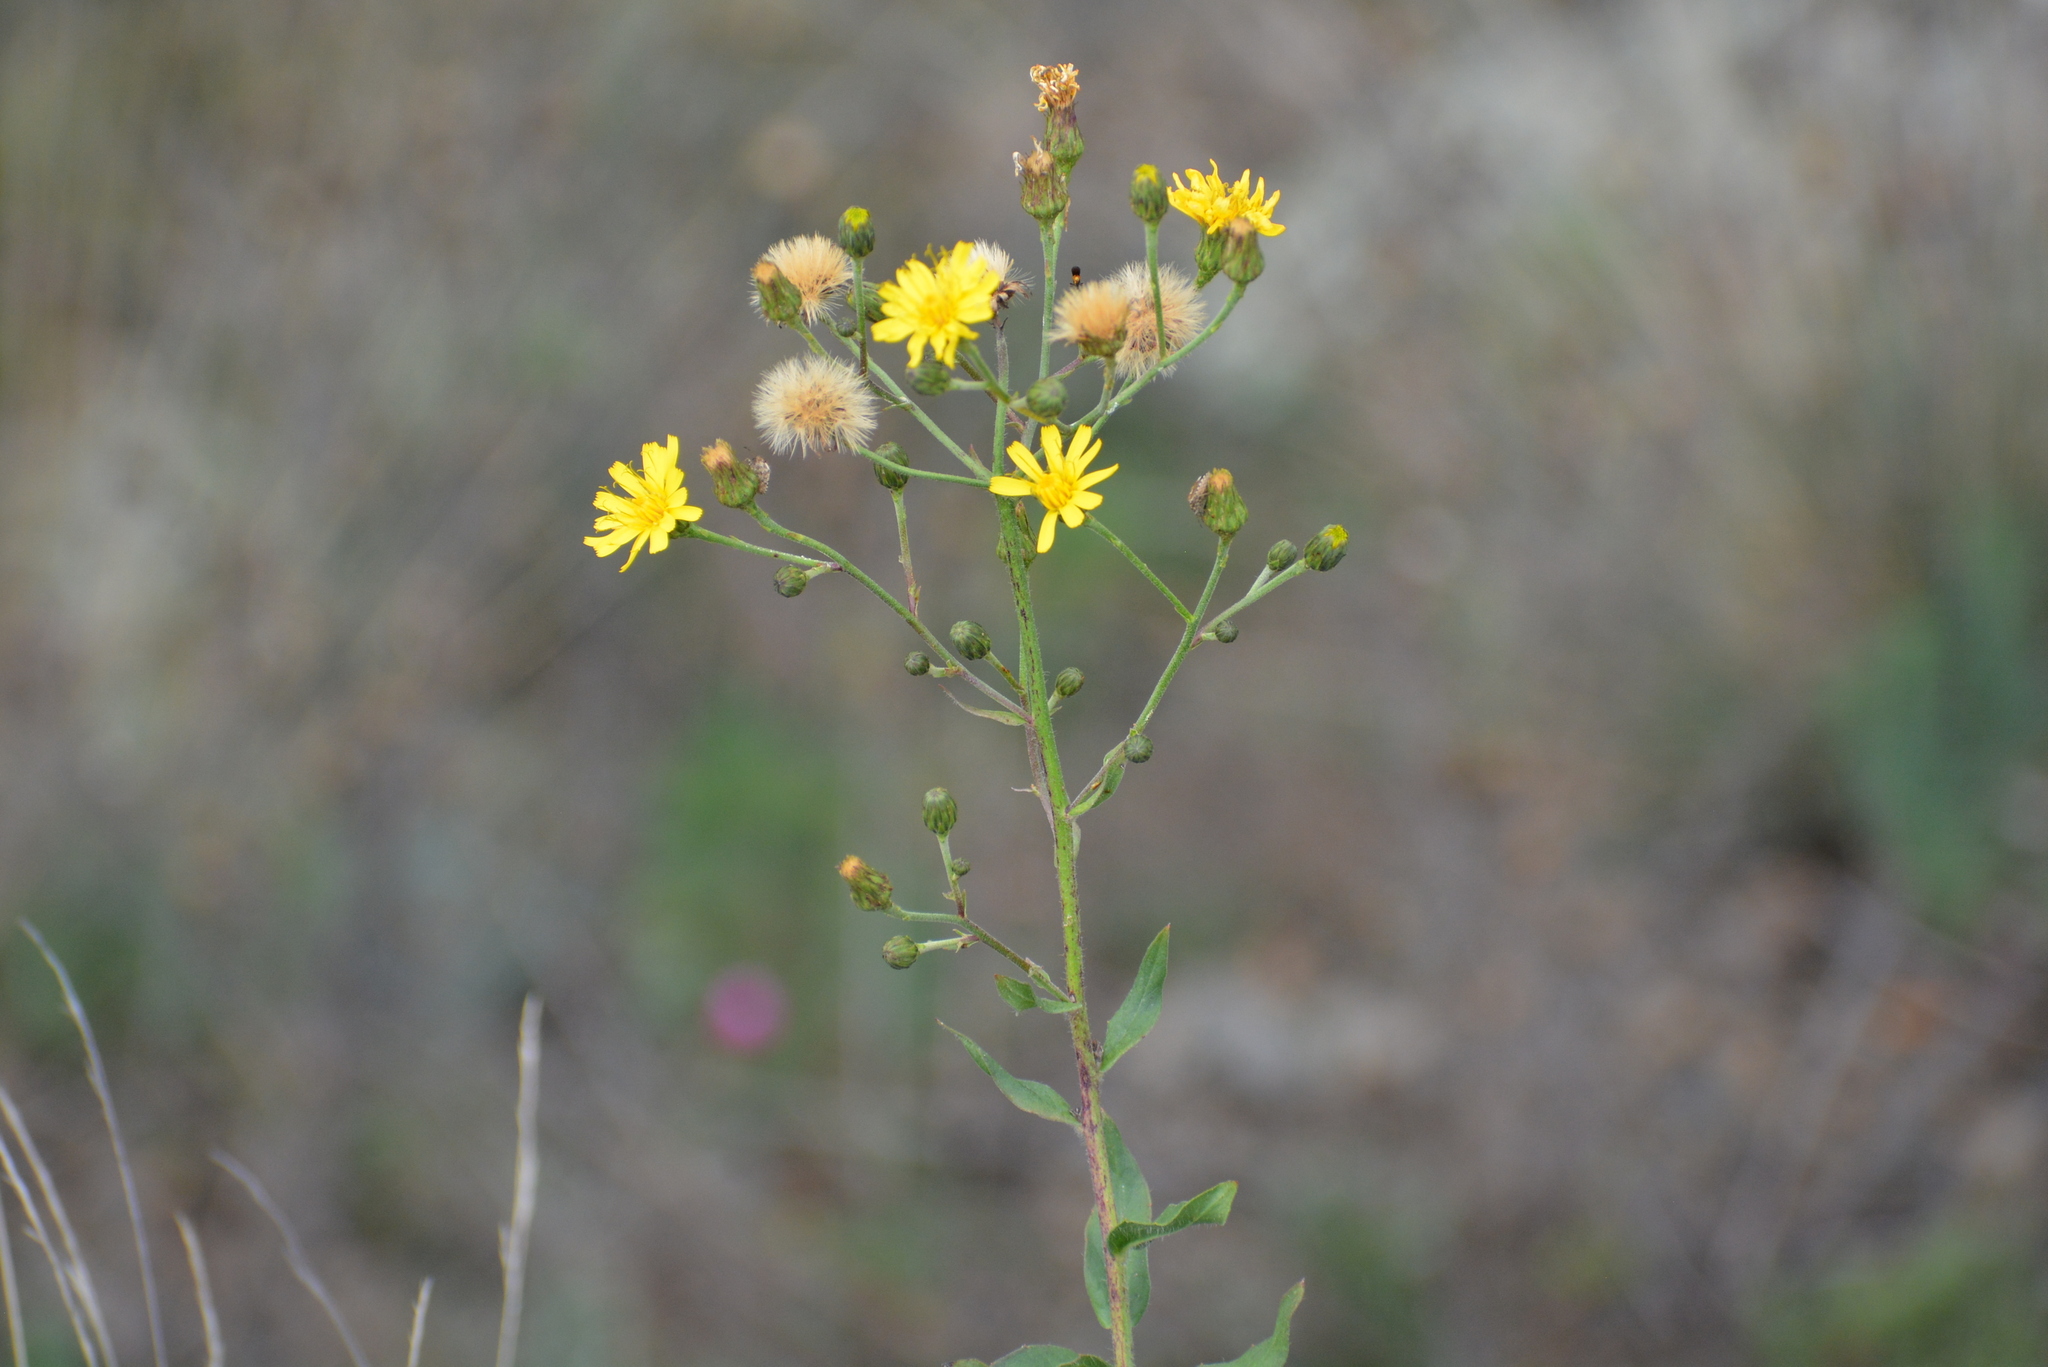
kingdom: Plantae
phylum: Tracheophyta
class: Magnoliopsida
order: Asterales
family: Asteraceae
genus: Hieracium
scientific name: Hieracium sabaudum
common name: New england hawkweed
